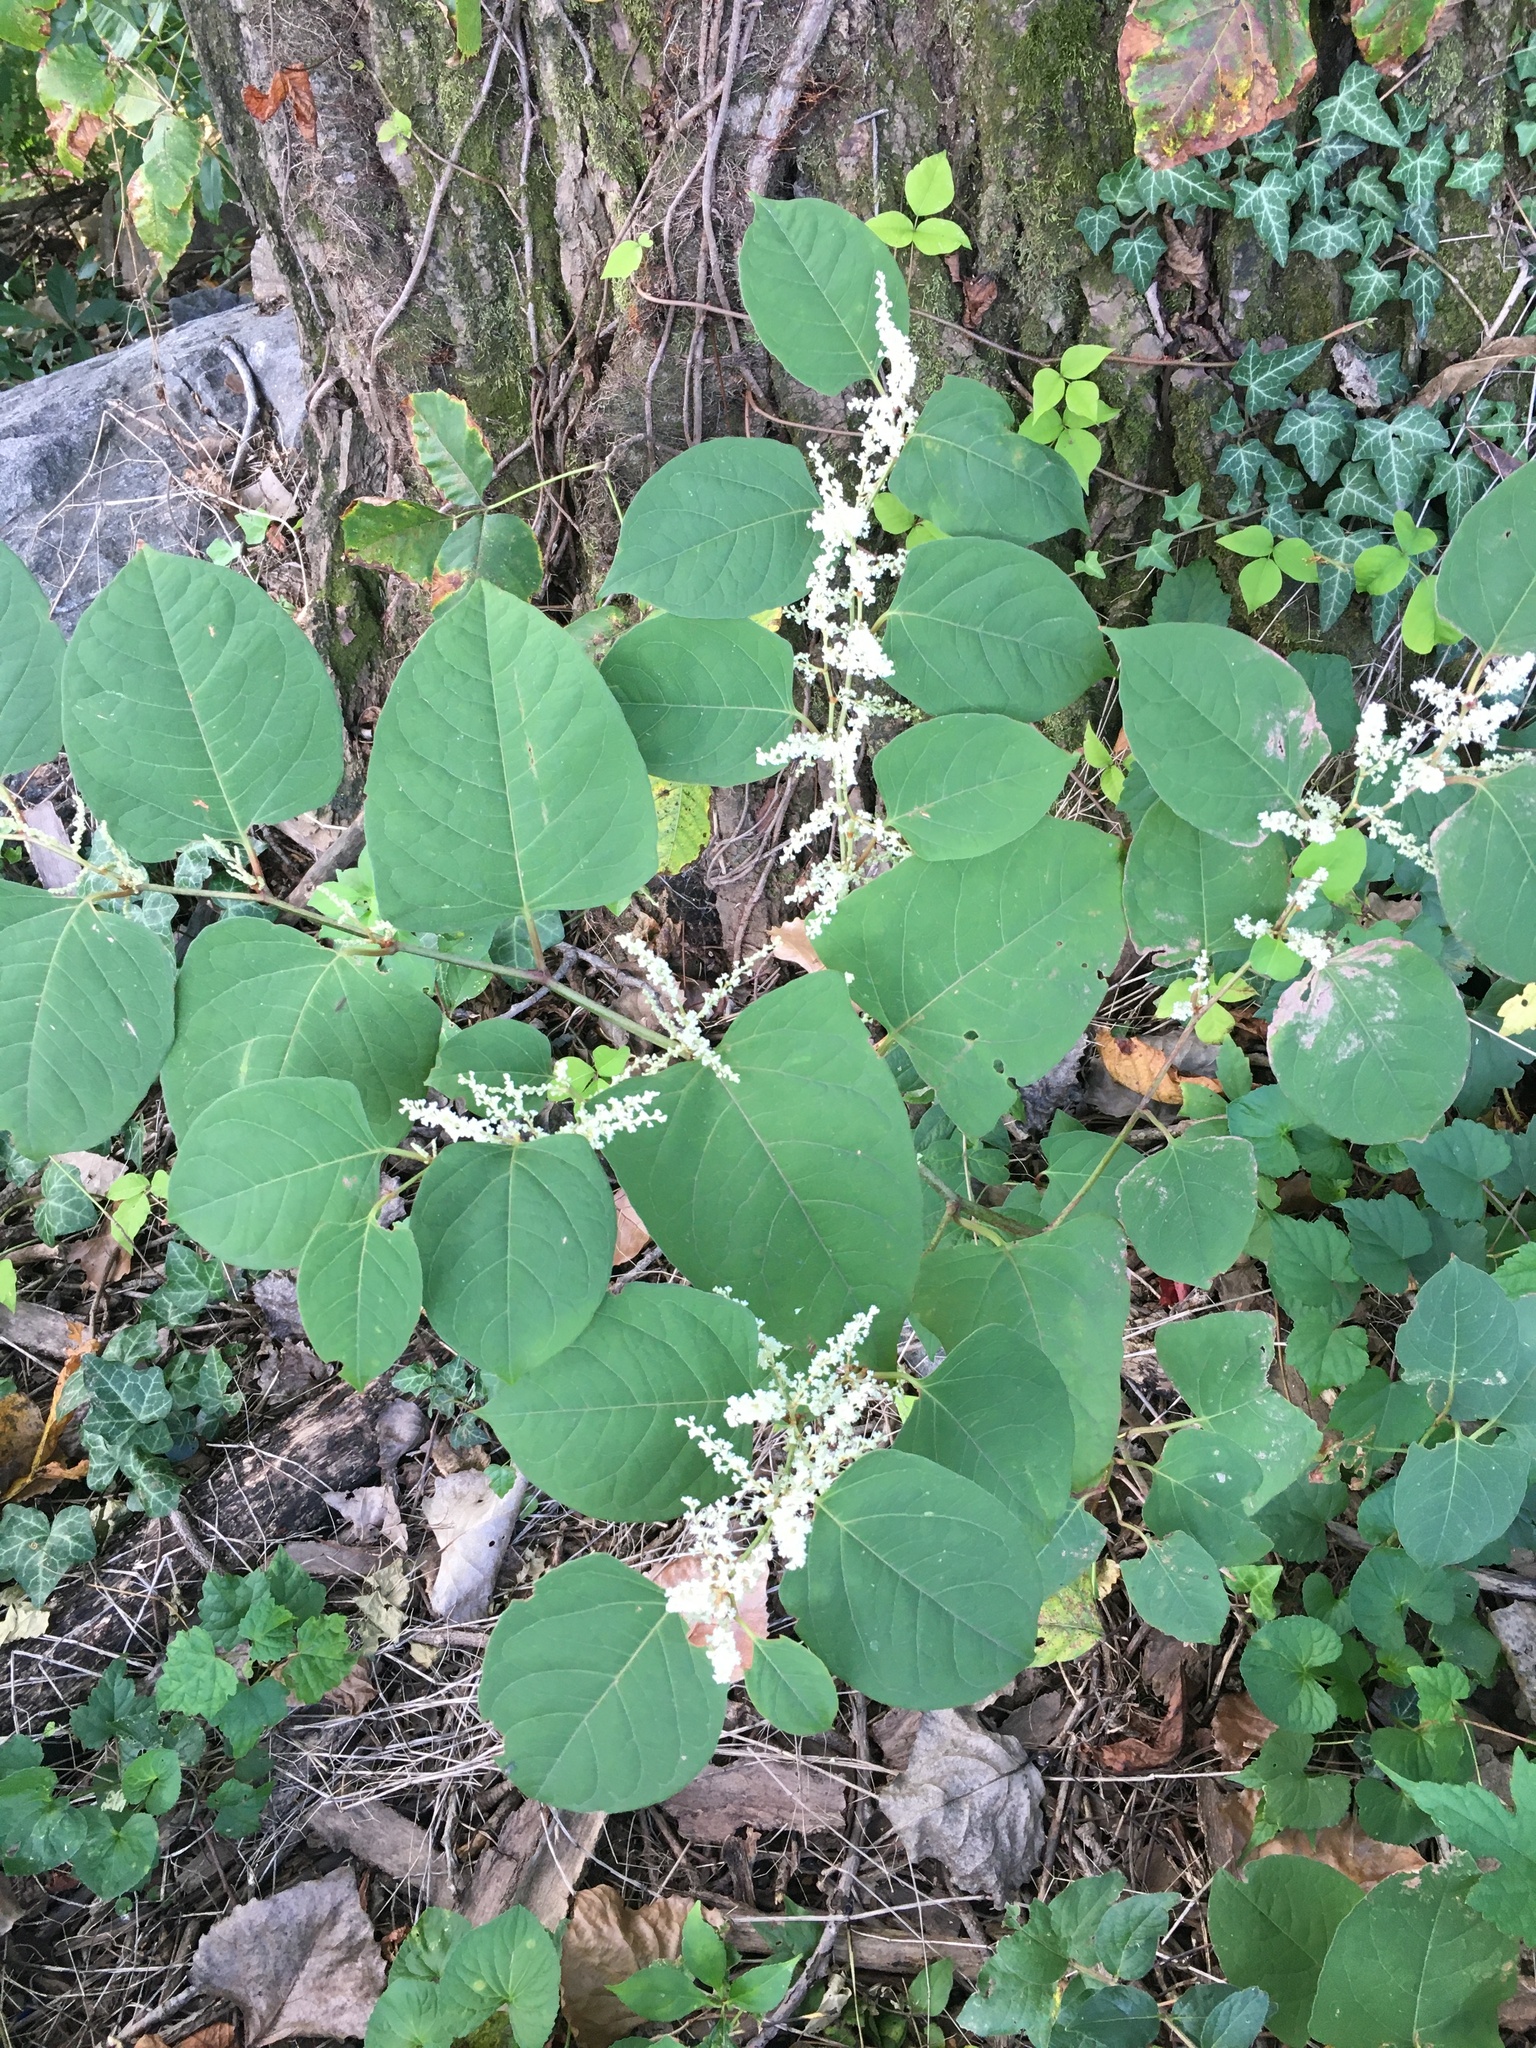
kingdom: Plantae
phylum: Tracheophyta
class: Magnoliopsida
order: Caryophyllales
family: Polygonaceae
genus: Reynoutria
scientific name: Reynoutria japonica
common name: Japanese knotweed
